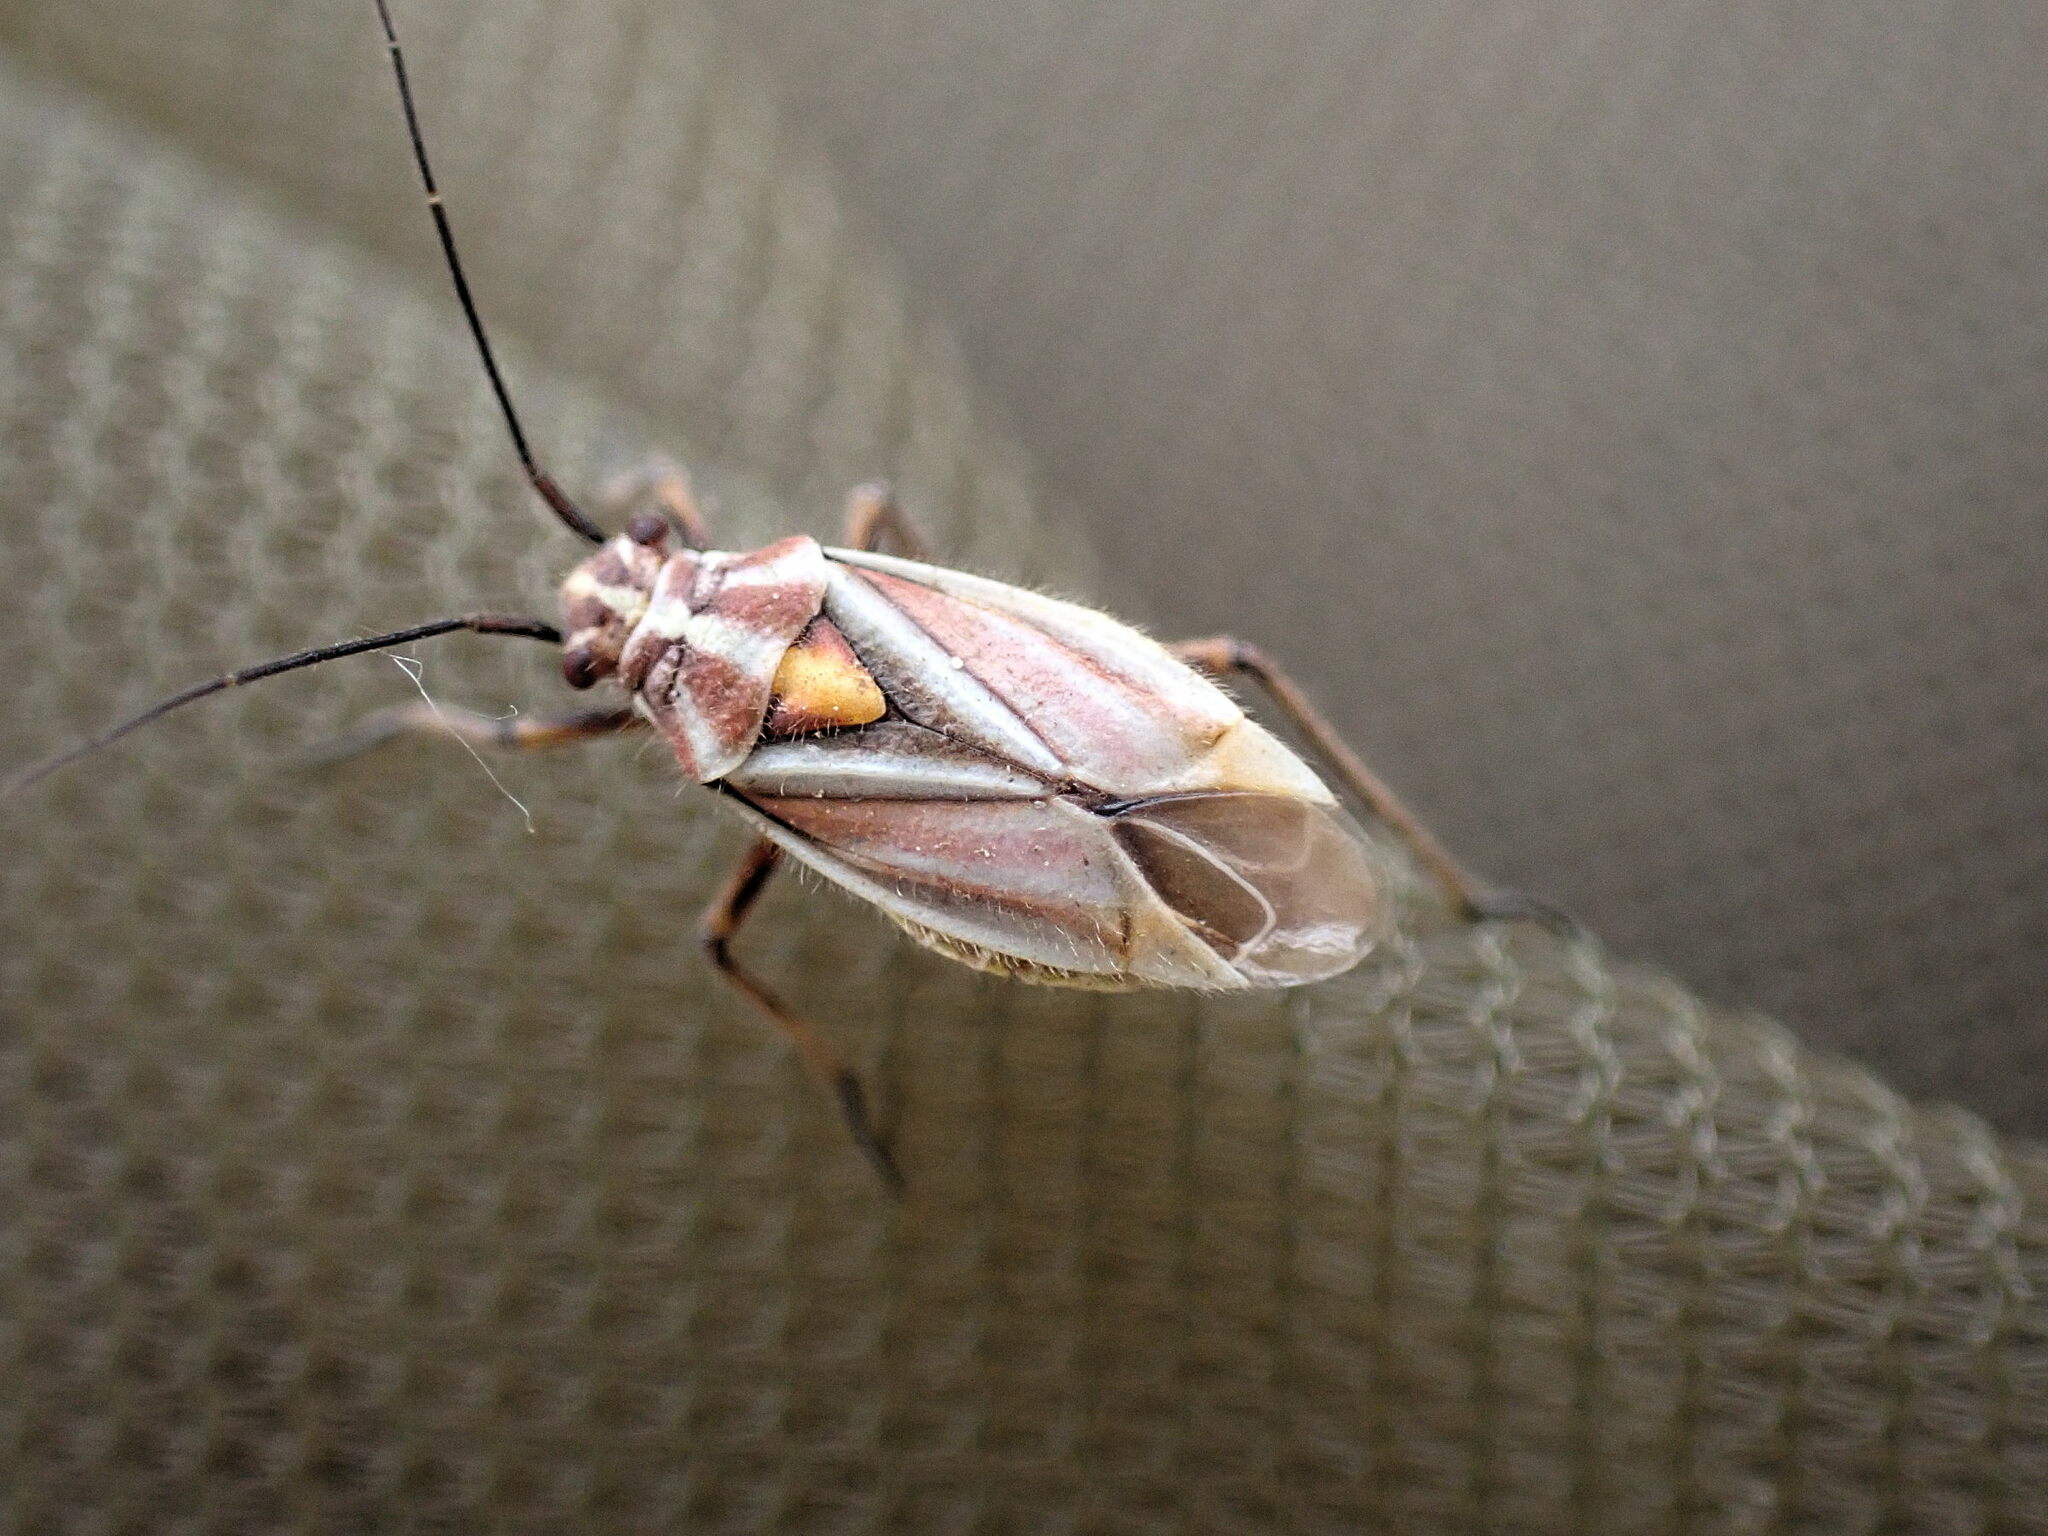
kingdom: Animalia
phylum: Arthropoda
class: Insecta
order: Hemiptera
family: Miridae
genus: Horistus
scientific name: Horistus orientalis
